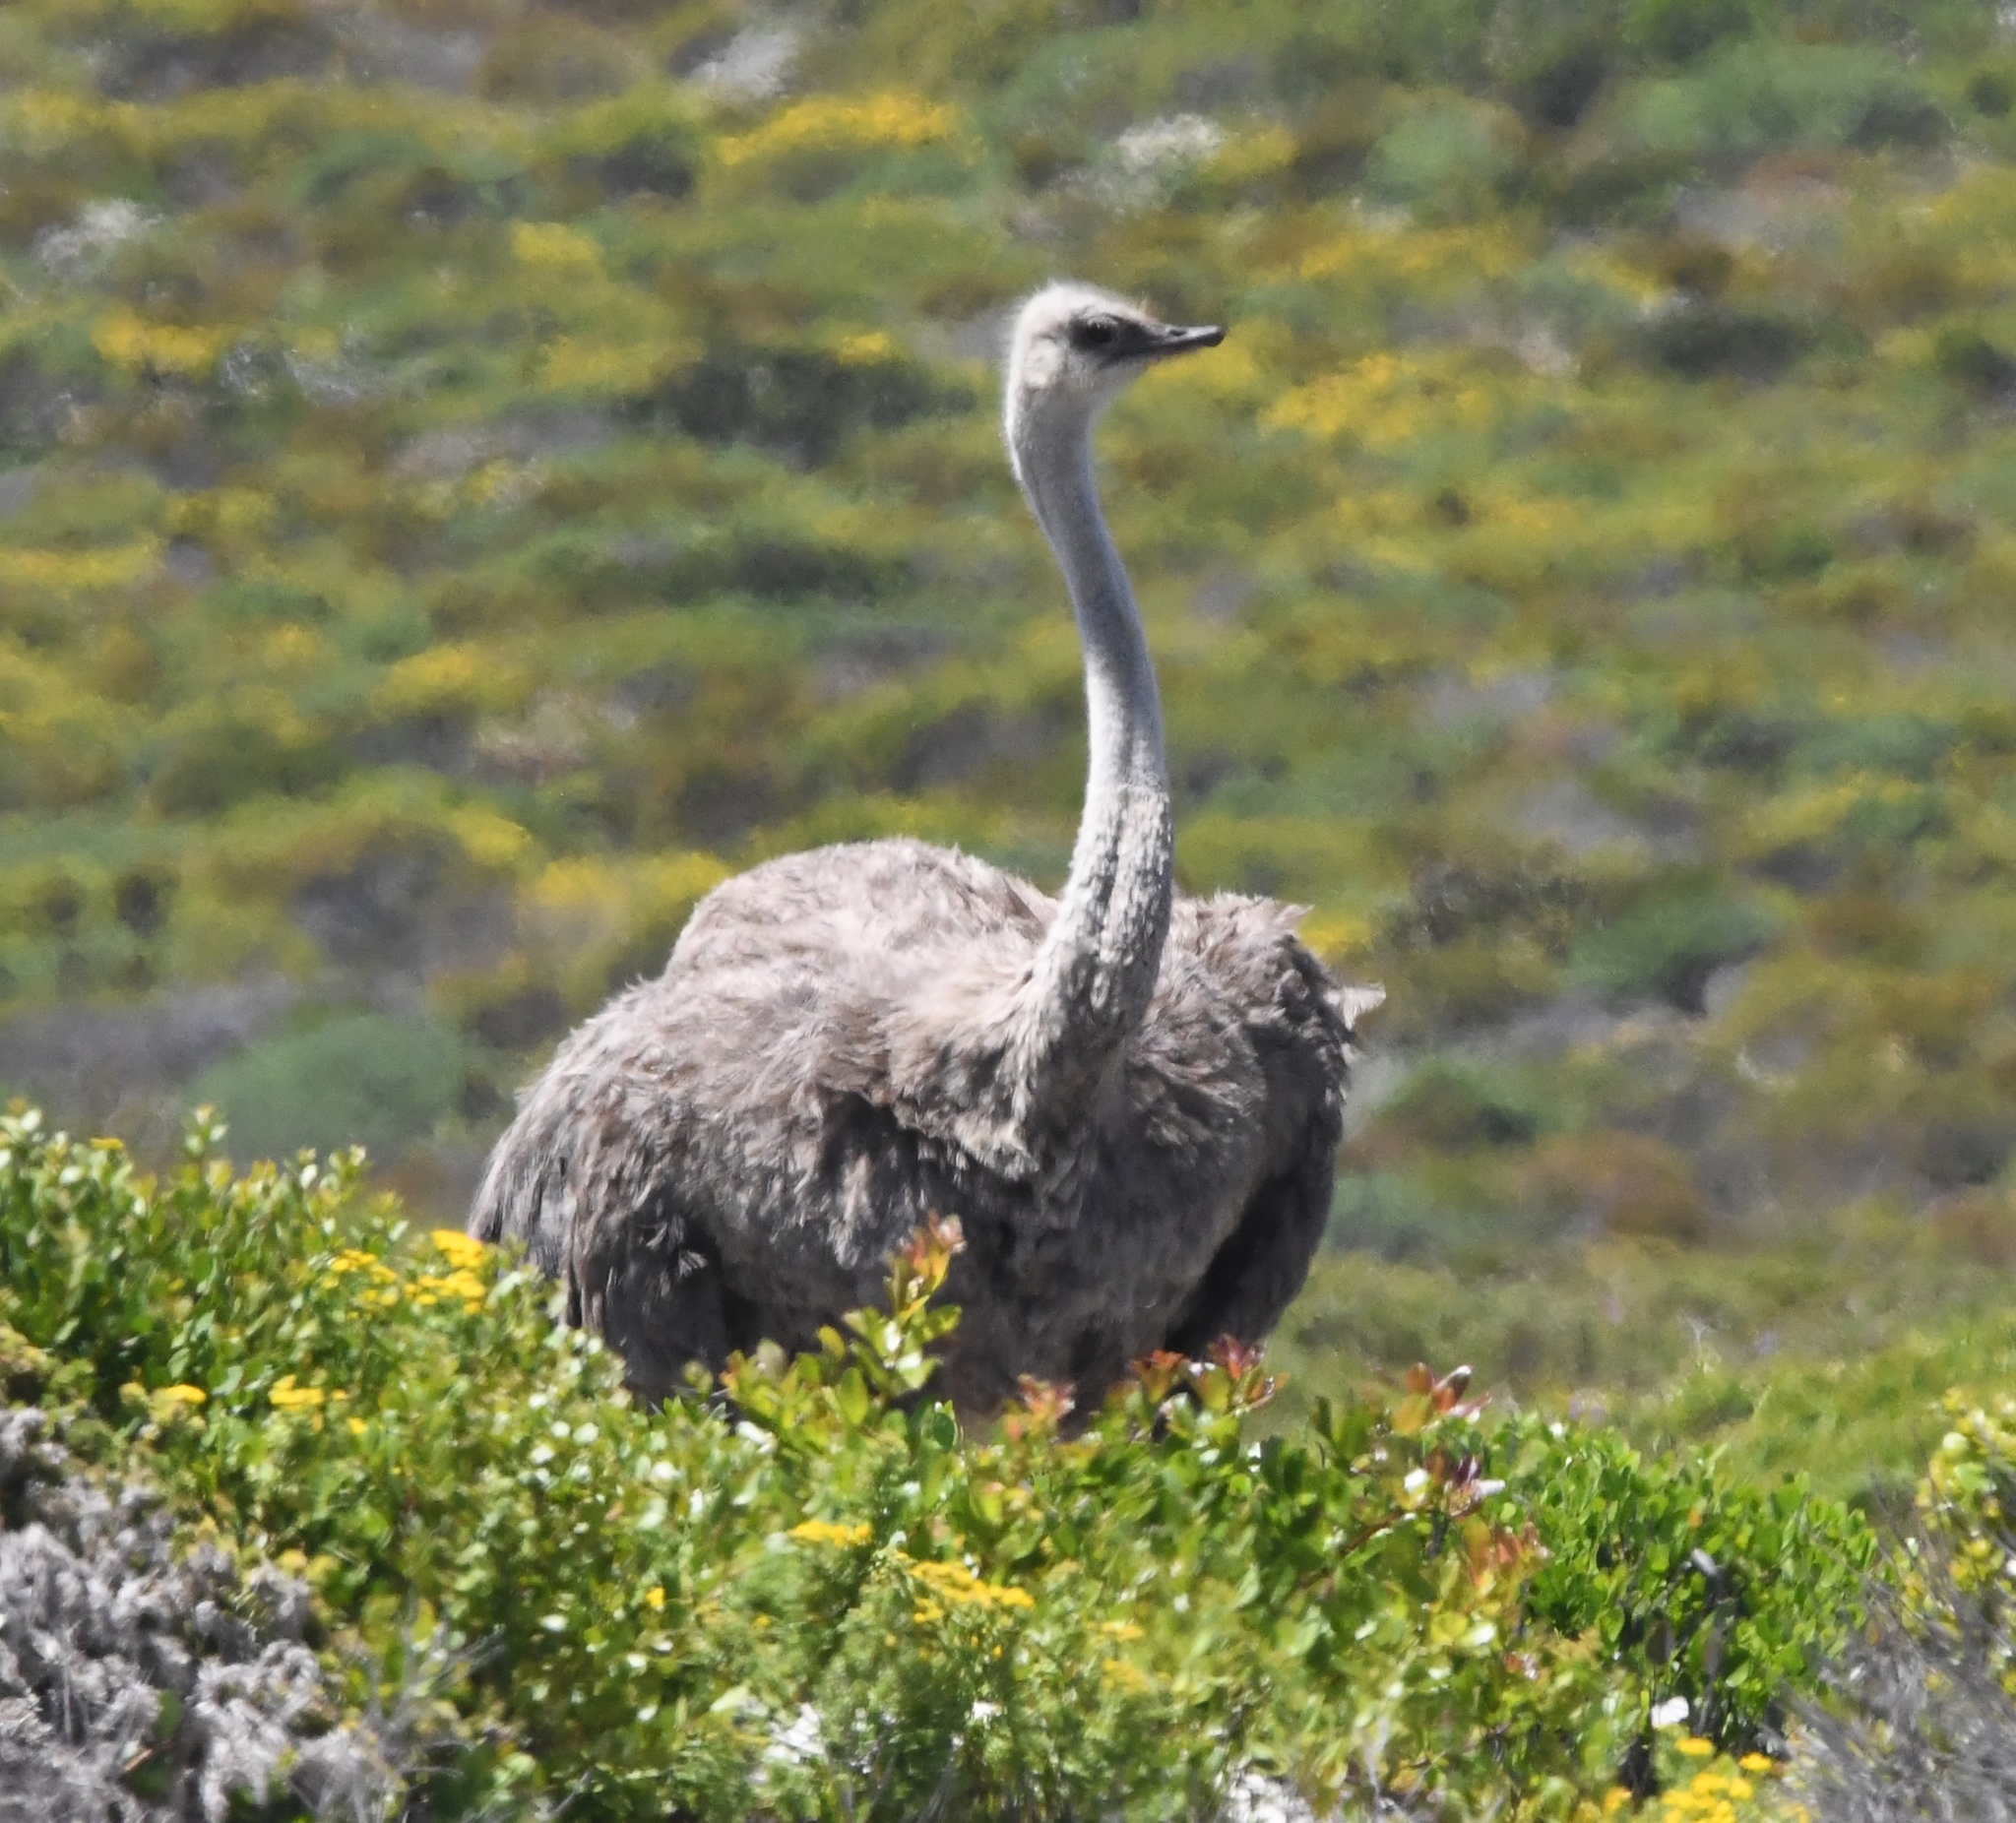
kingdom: Animalia
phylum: Chordata
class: Aves
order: Struthioniformes
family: Struthionidae
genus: Struthio
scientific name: Struthio camelus
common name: Common ostrich
